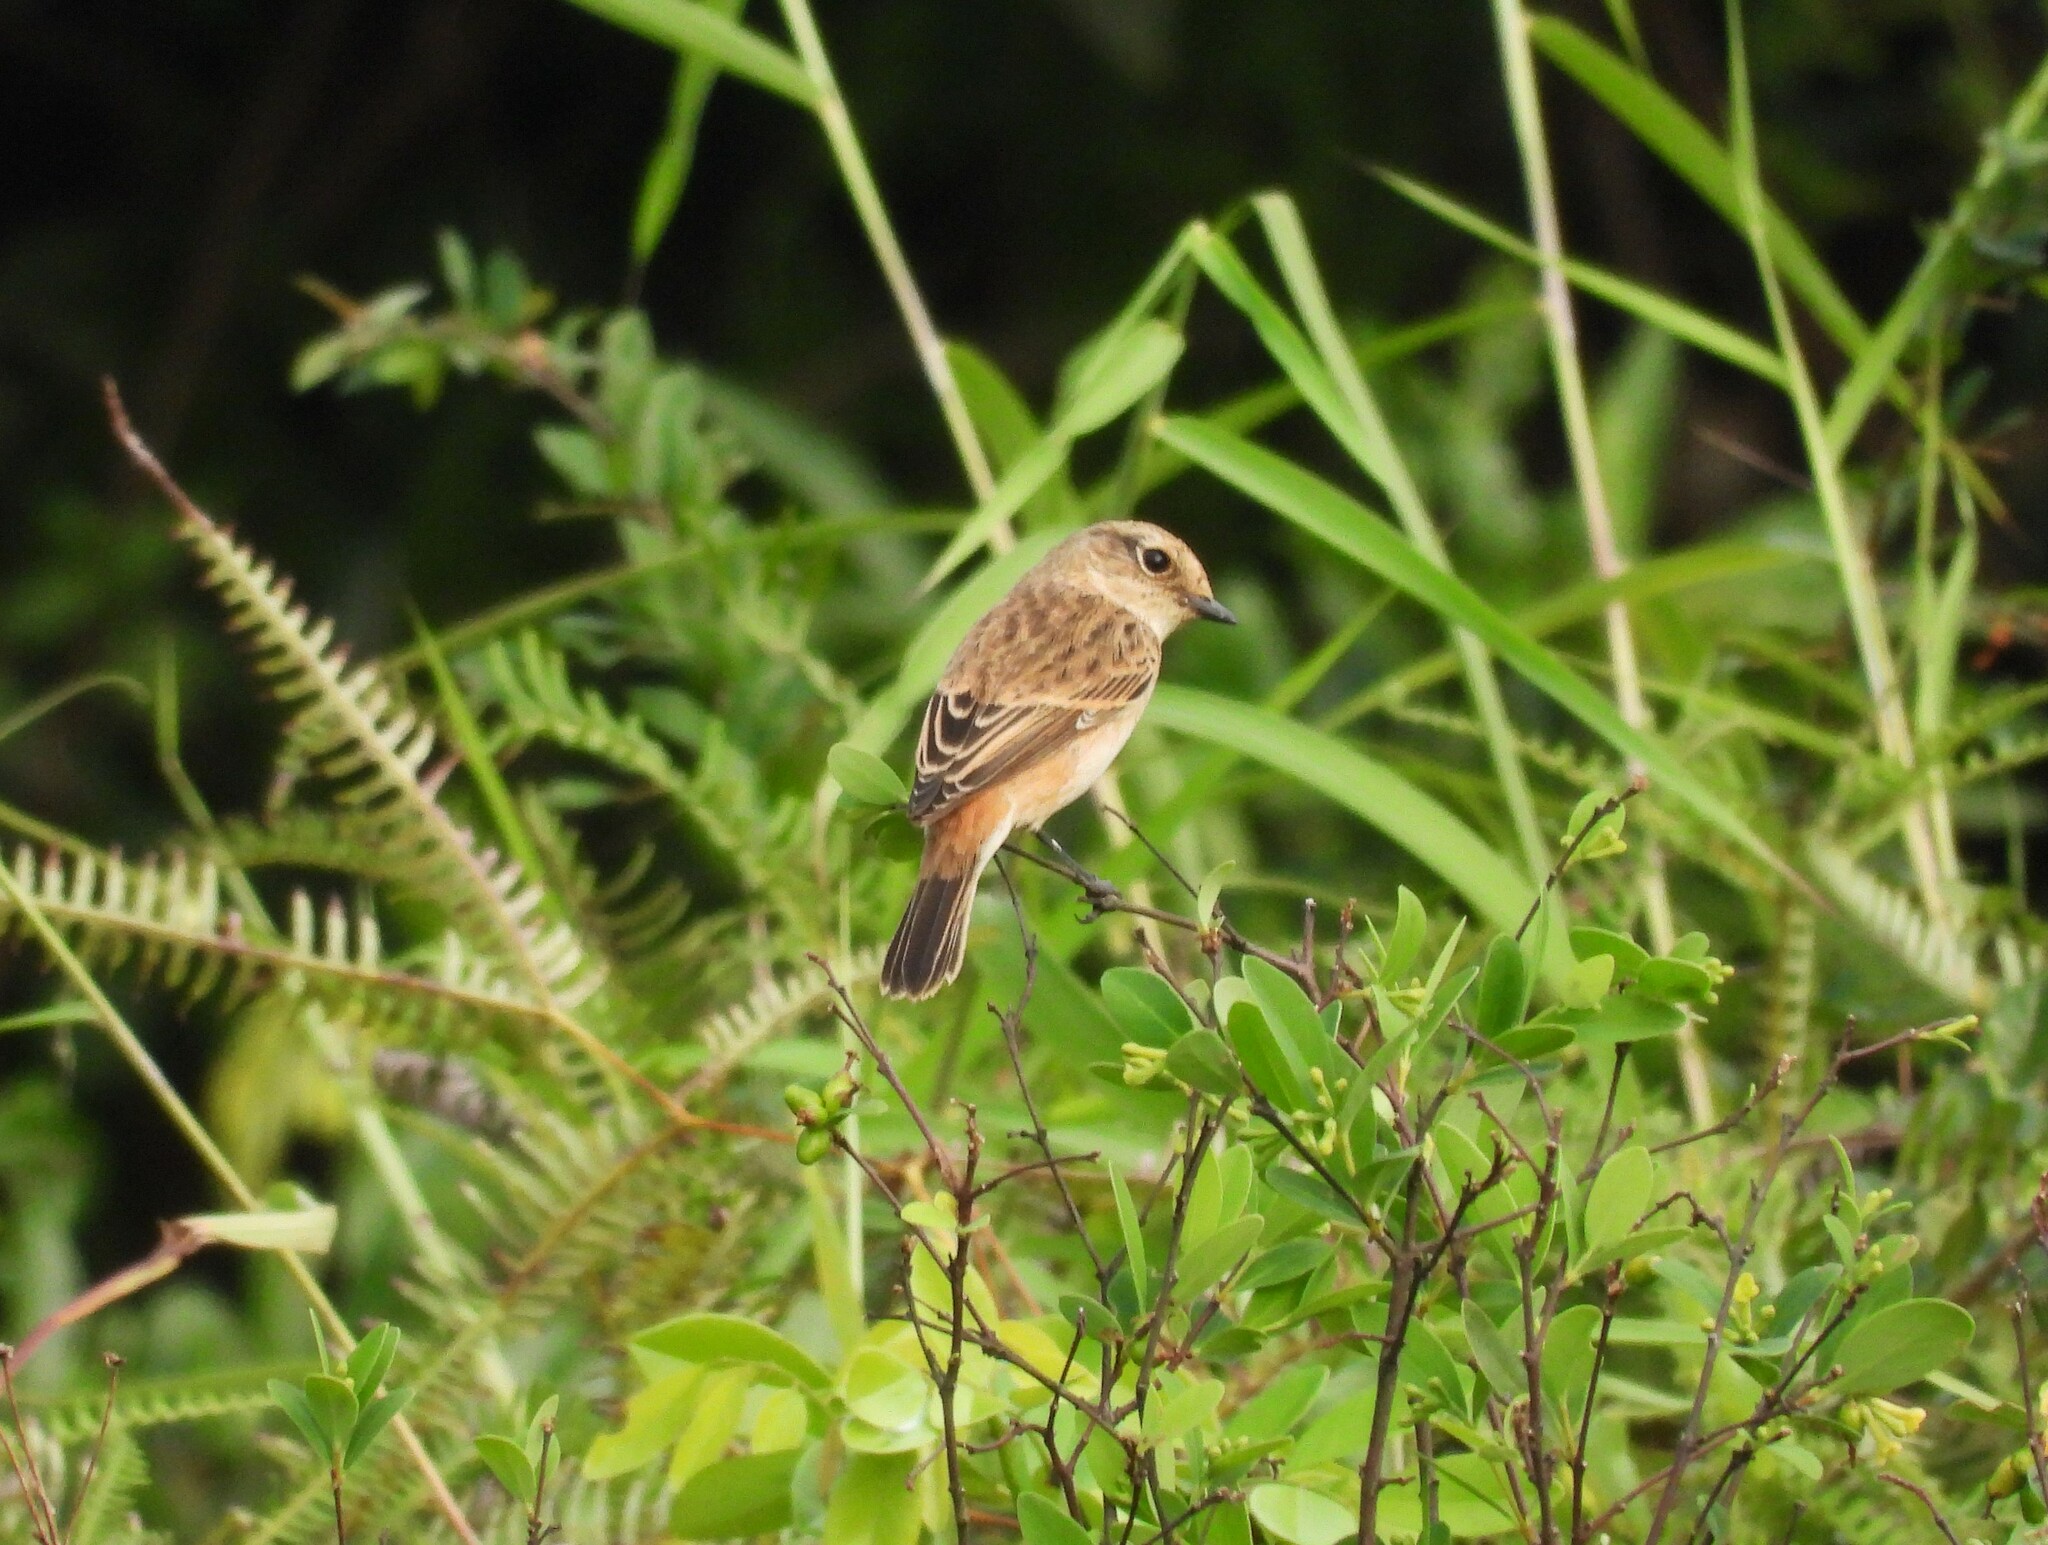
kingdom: Animalia
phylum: Chordata
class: Aves
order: Passeriformes
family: Muscicapidae
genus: Saxicola
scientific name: Saxicola stejnegeri
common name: Stejneger's stonechat
